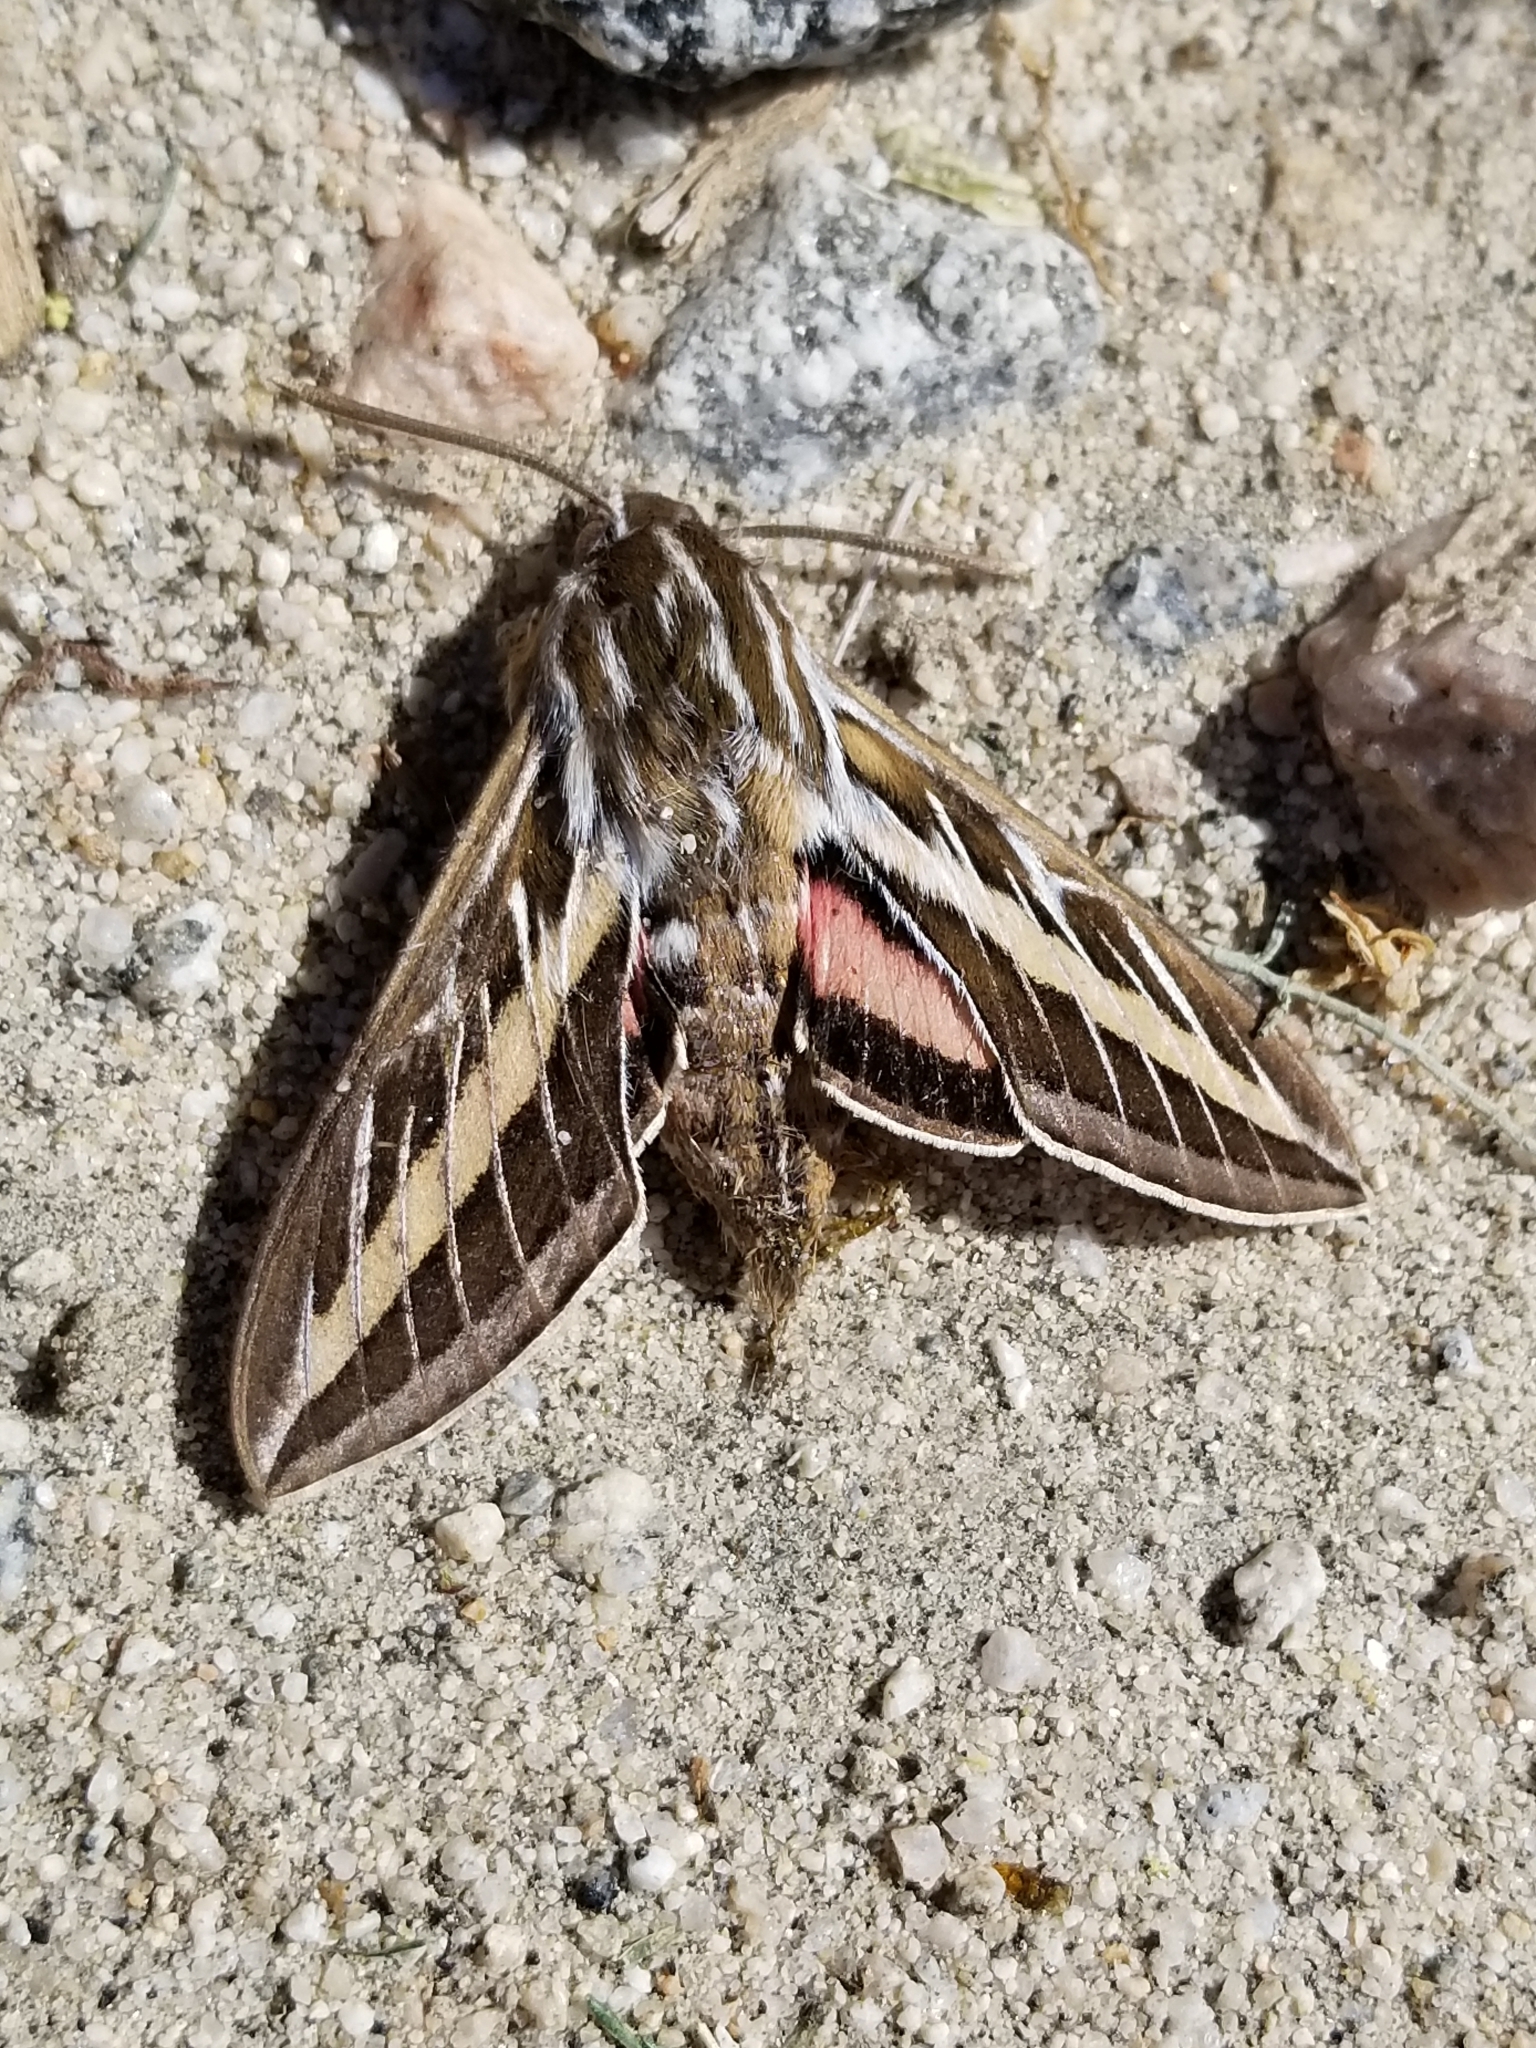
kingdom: Animalia
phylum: Arthropoda
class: Insecta
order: Lepidoptera
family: Sphingidae
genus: Hyles
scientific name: Hyles lineata
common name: White-lined sphinx
